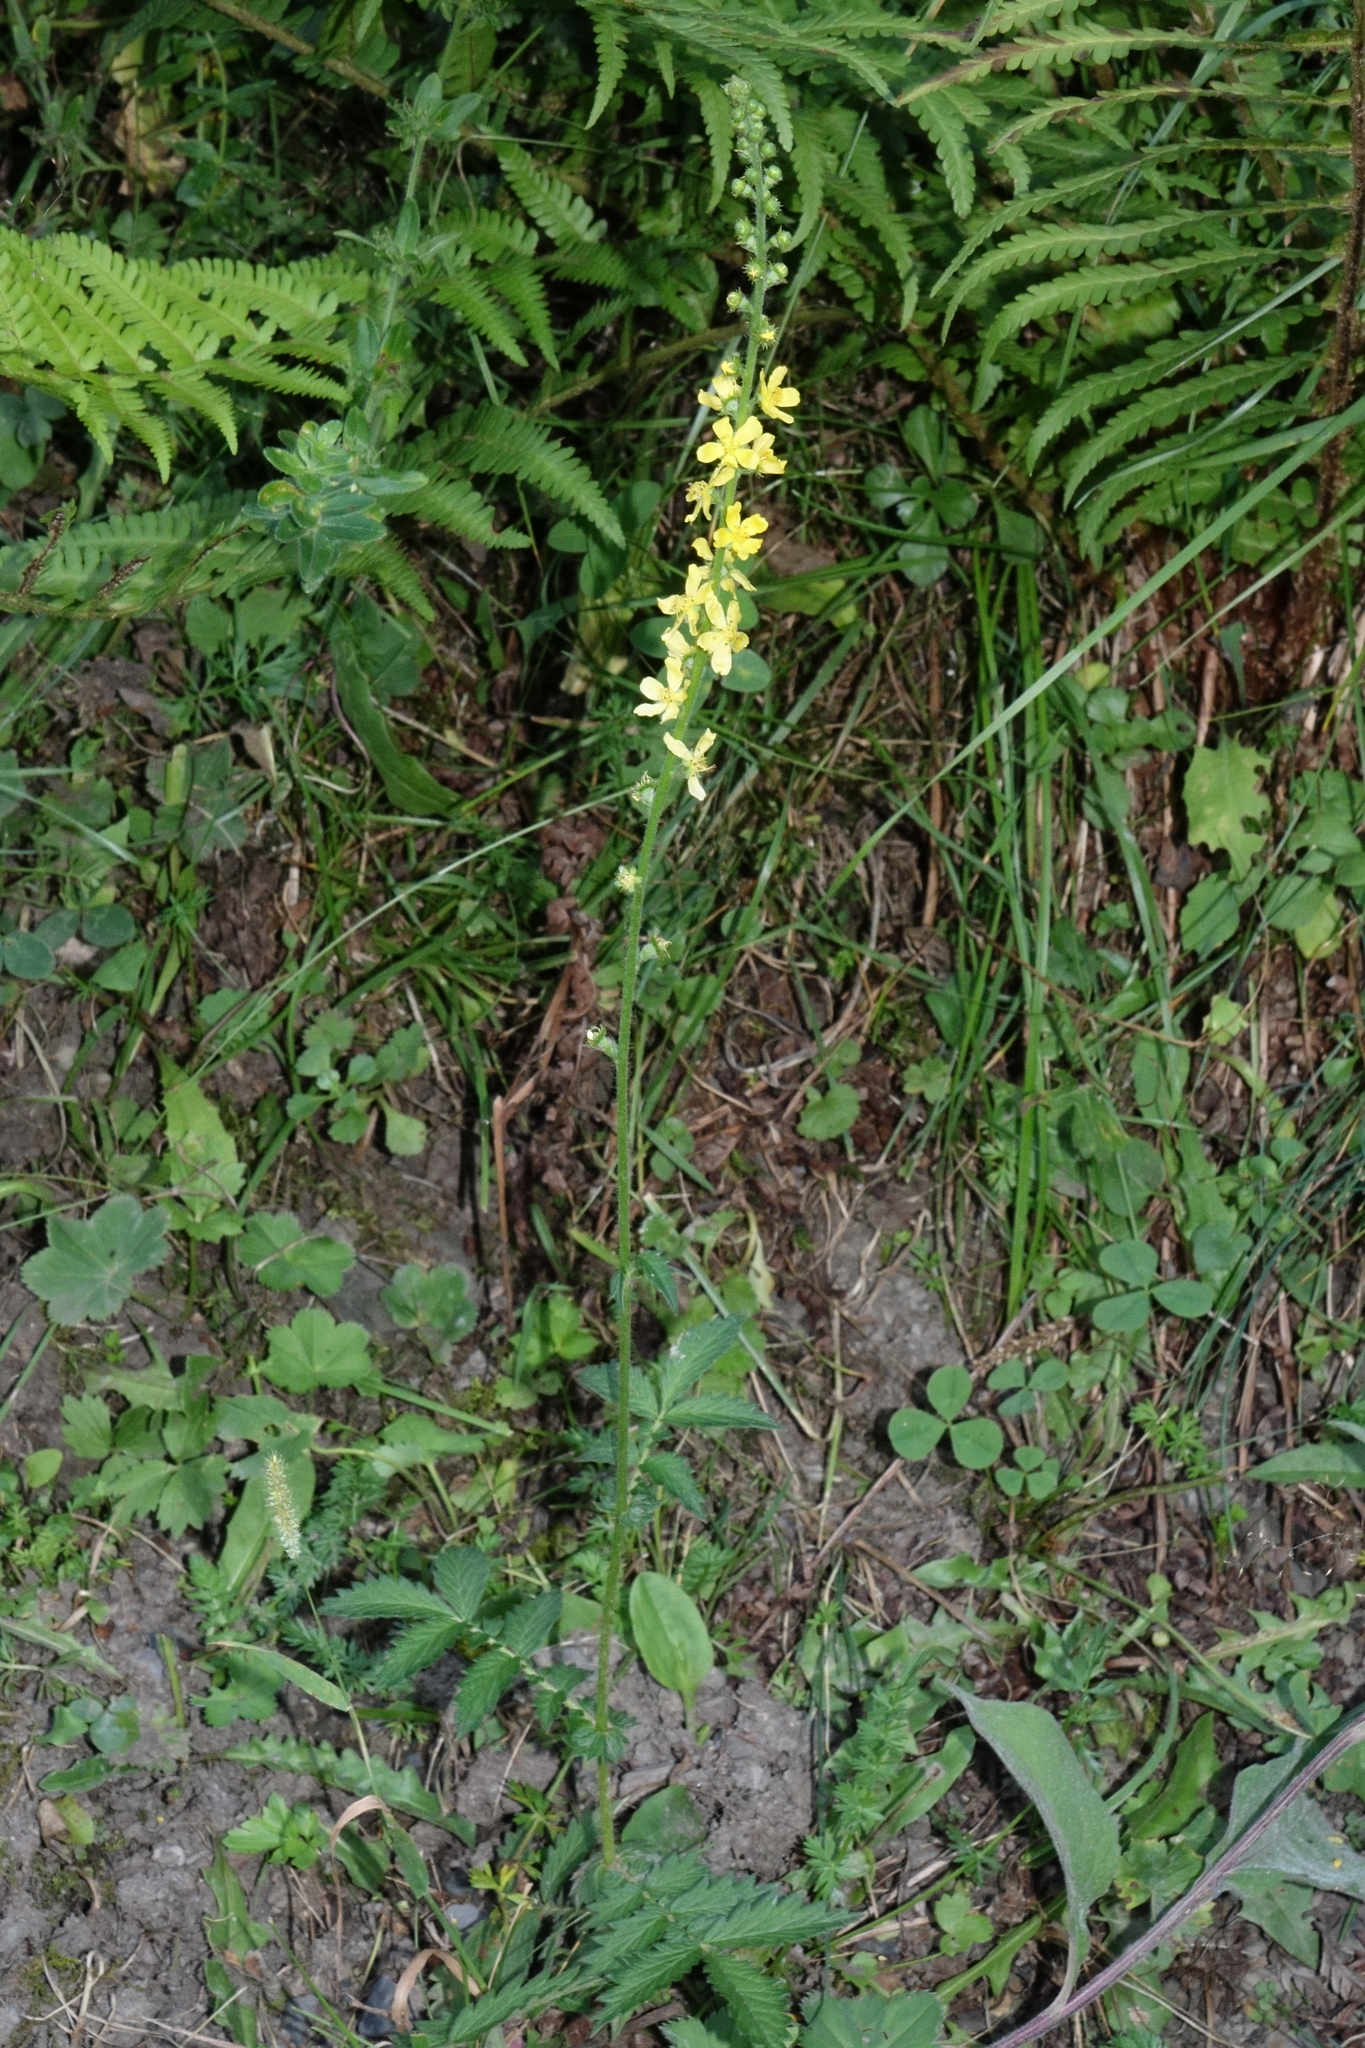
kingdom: Plantae
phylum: Tracheophyta
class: Magnoliopsida
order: Rosales
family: Rosaceae
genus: Agrimonia
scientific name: Agrimonia eupatoria
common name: Agrimony
